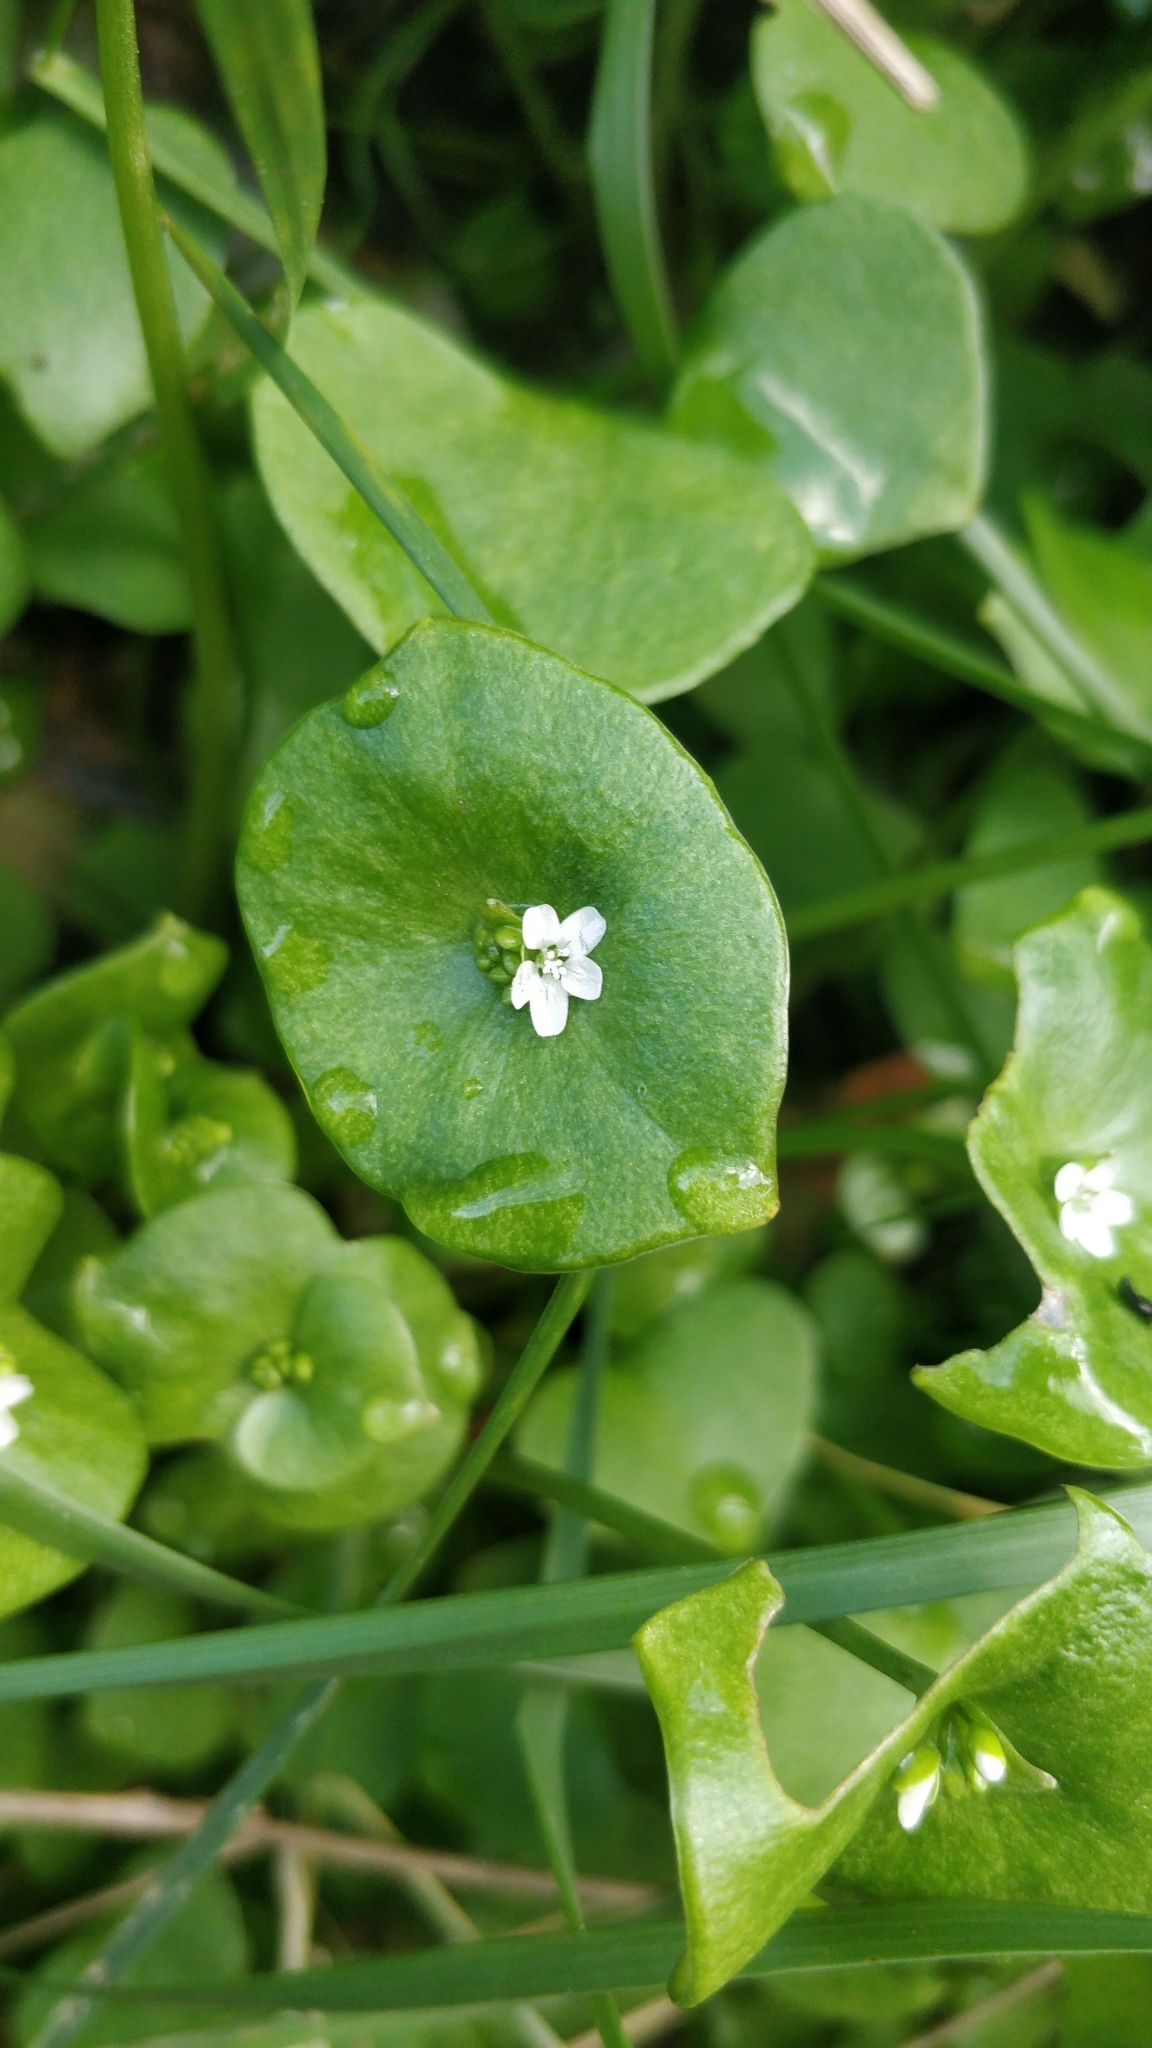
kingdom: Plantae
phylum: Tracheophyta
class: Magnoliopsida
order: Caryophyllales
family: Montiaceae
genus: Claytonia
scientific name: Claytonia perfoliata
